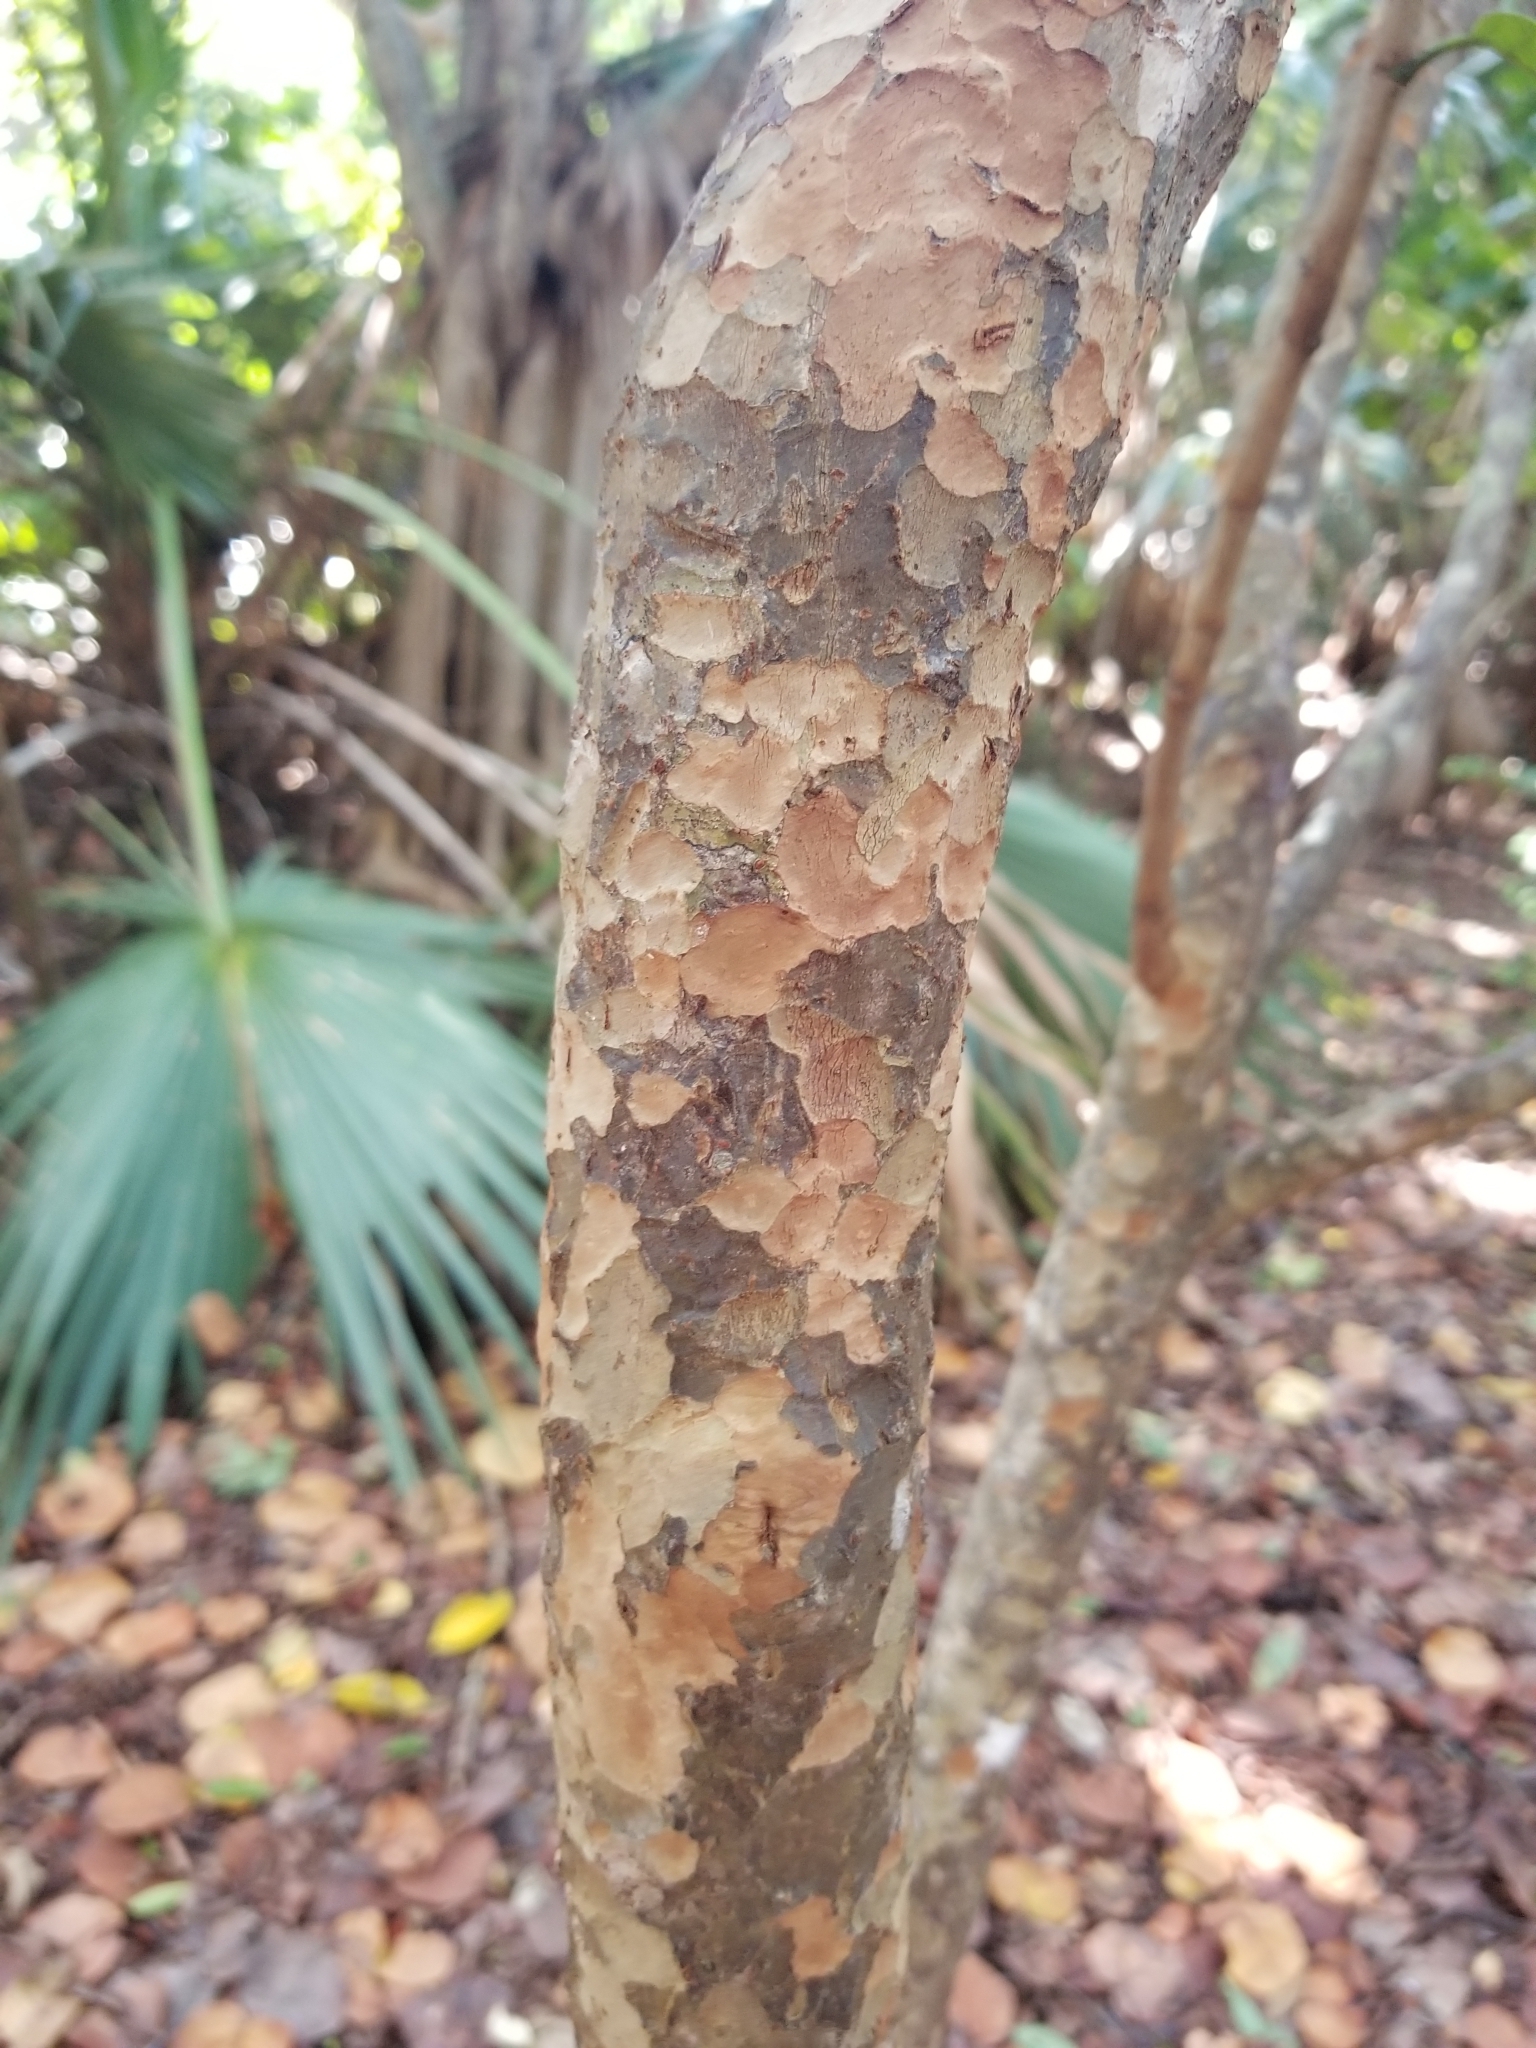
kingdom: Plantae
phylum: Tracheophyta
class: Magnoliopsida
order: Caryophyllales
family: Polygonaceae
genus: Coccoloba
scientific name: Coccoloba diversifolia
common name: Pigeon-plum
